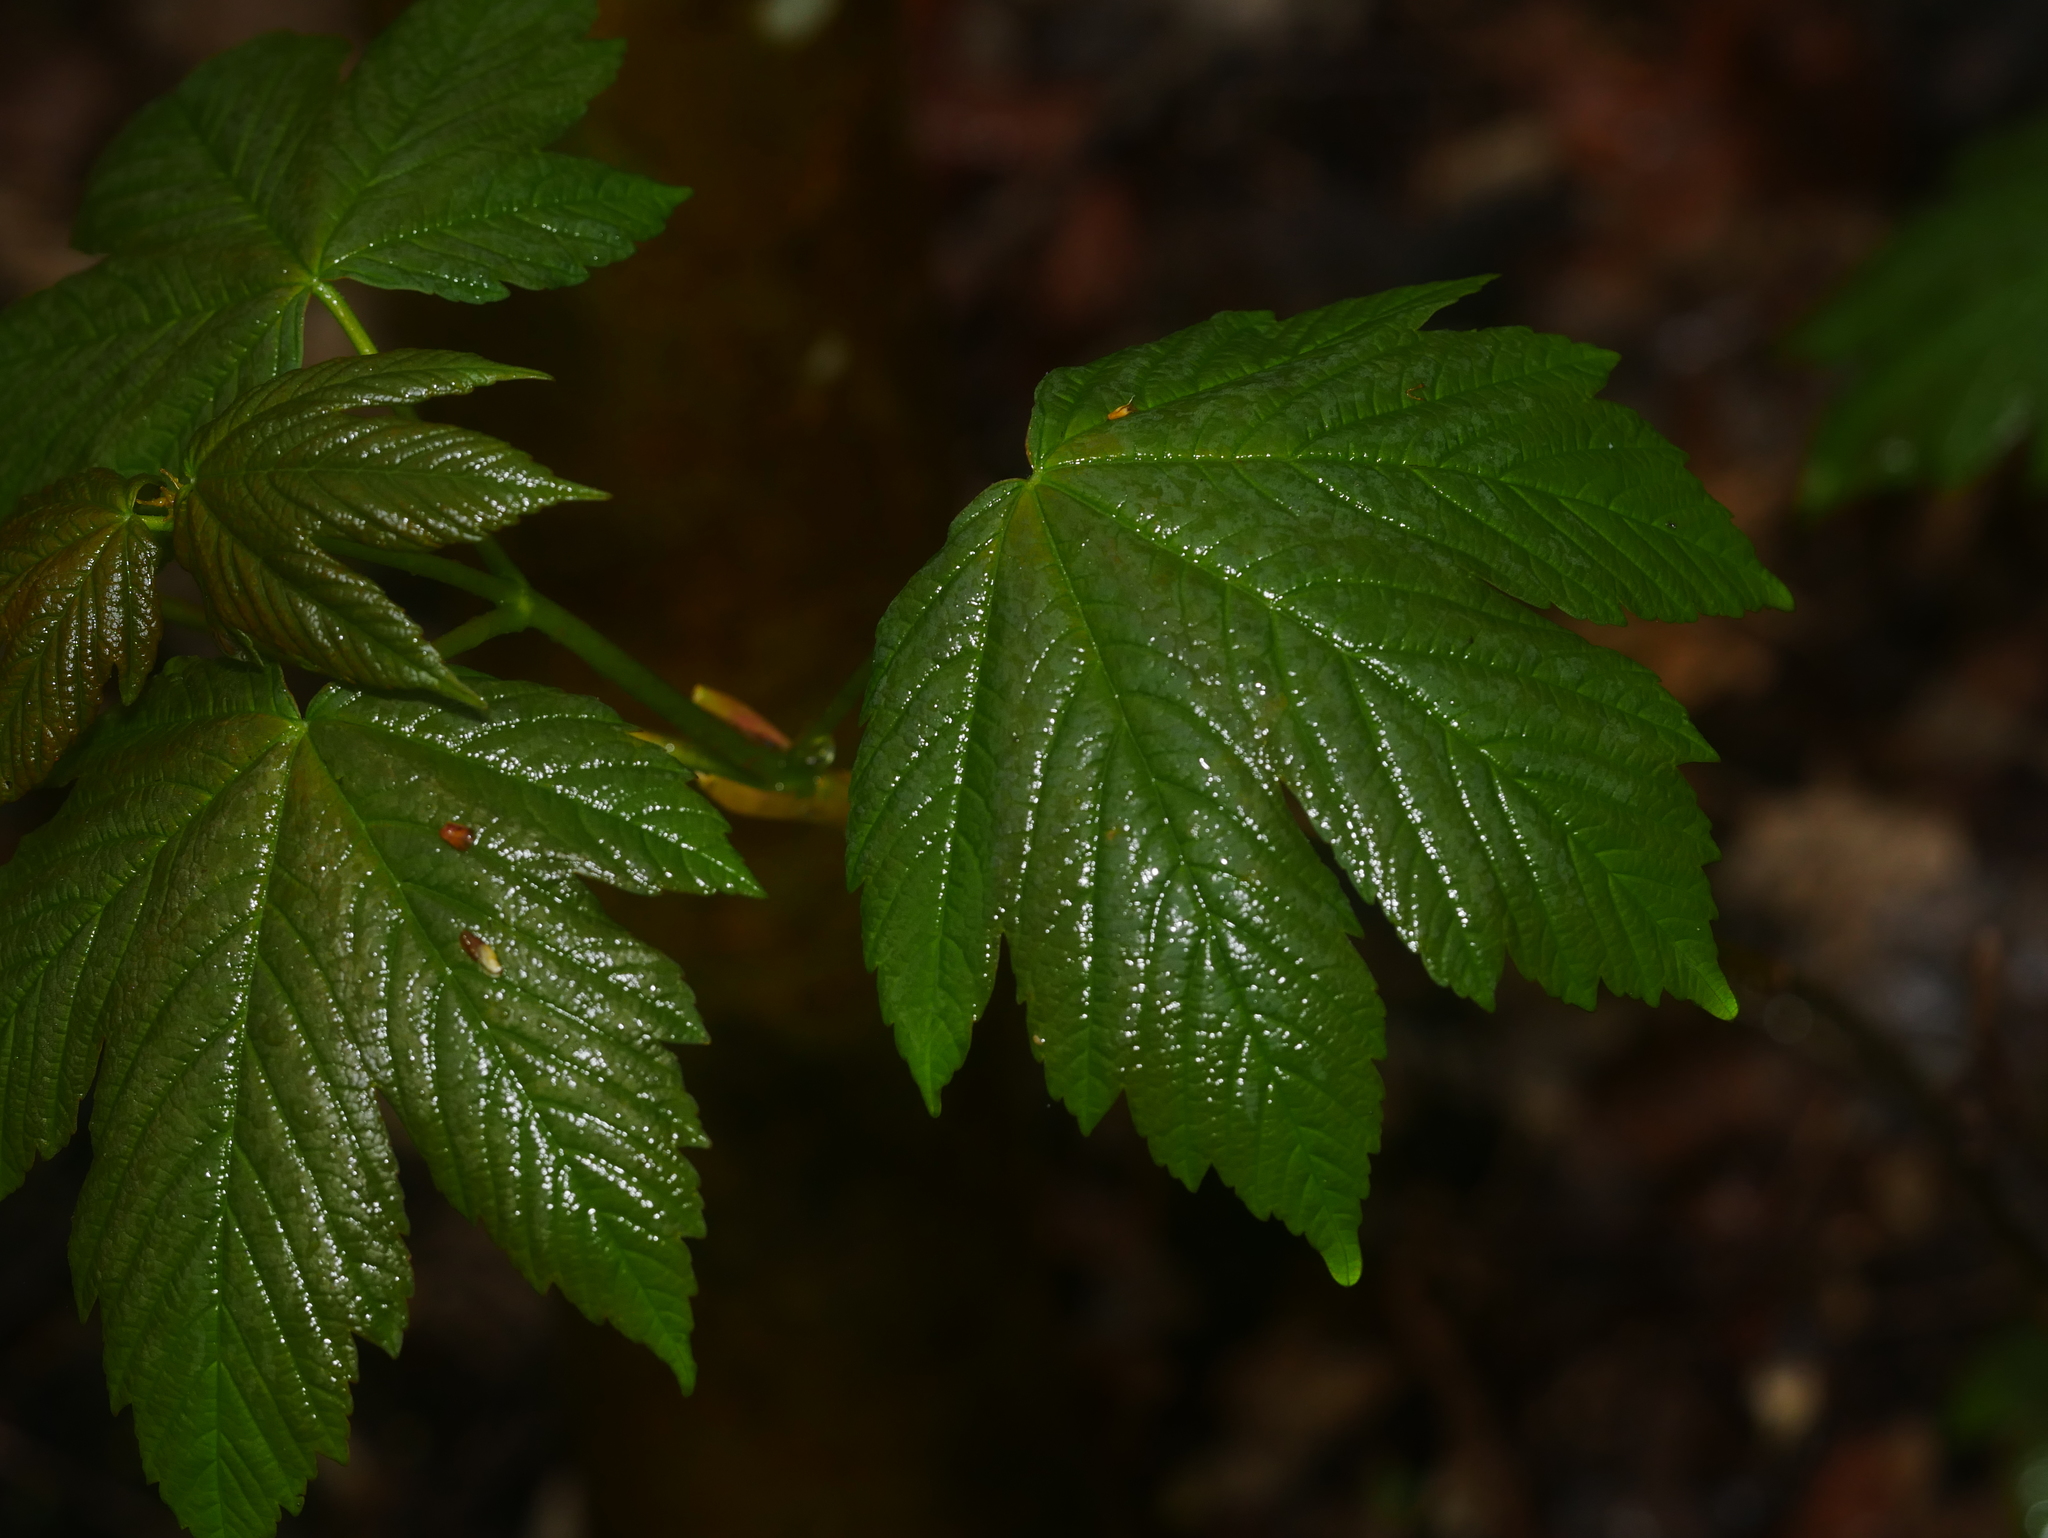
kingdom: Plantae
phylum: Tracheophyta
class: Magnoliopsida
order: Sapindales
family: Sapindaceae
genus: Acer
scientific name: Acer pseudoplatanus
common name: Sycamore
